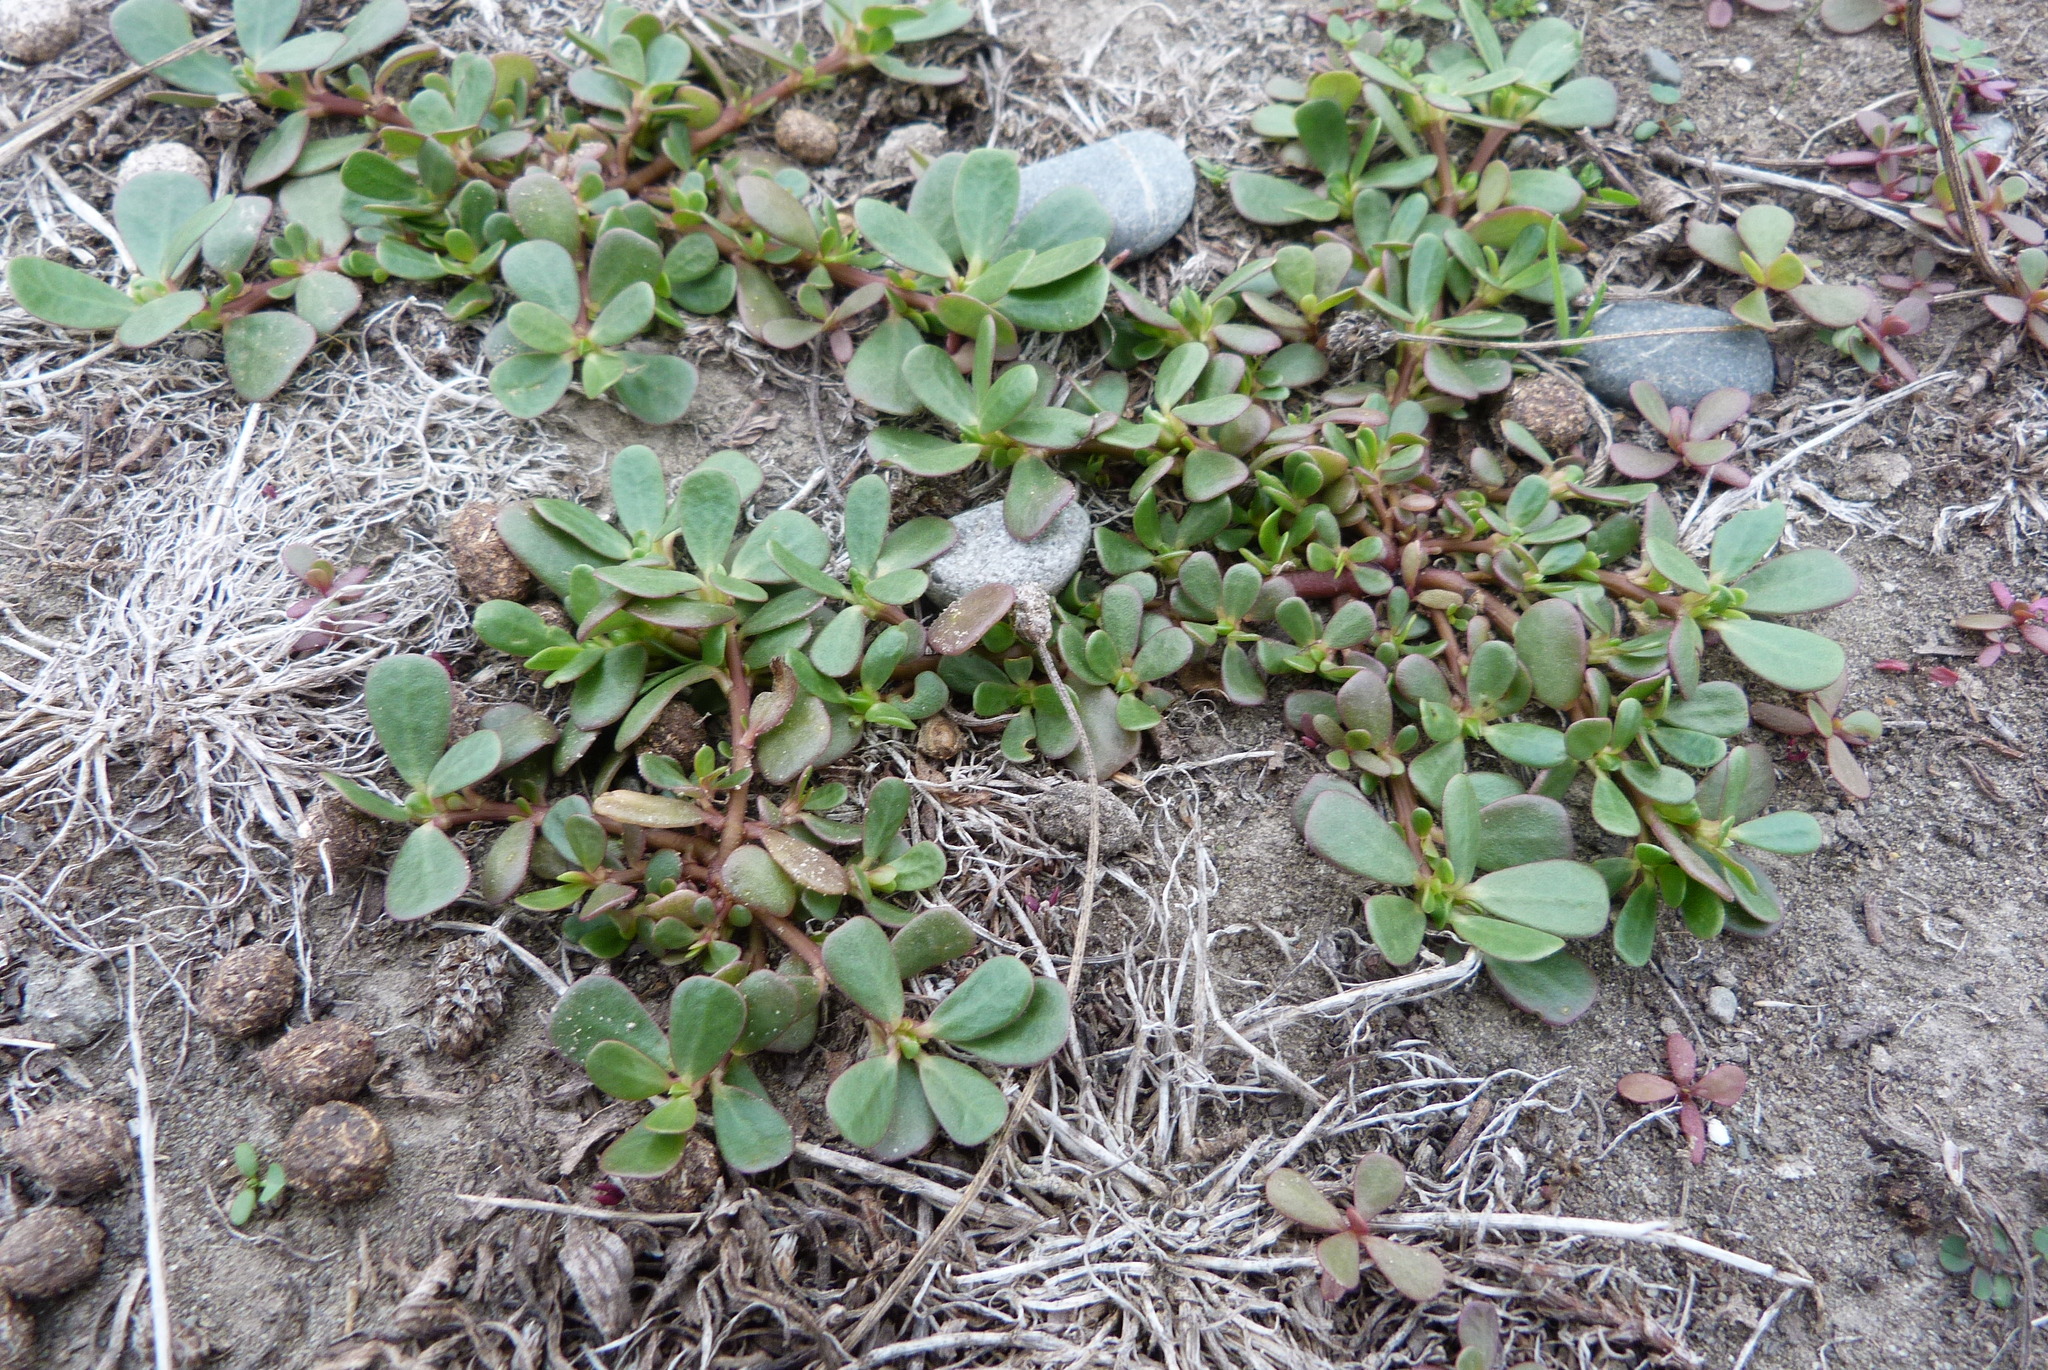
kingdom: Plantae
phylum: Tracheophyta
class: Magnoliopsida
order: Caryophyllales
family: Portulacaceae
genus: Portulaca
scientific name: Portulaca oleracea
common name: Common purslane
